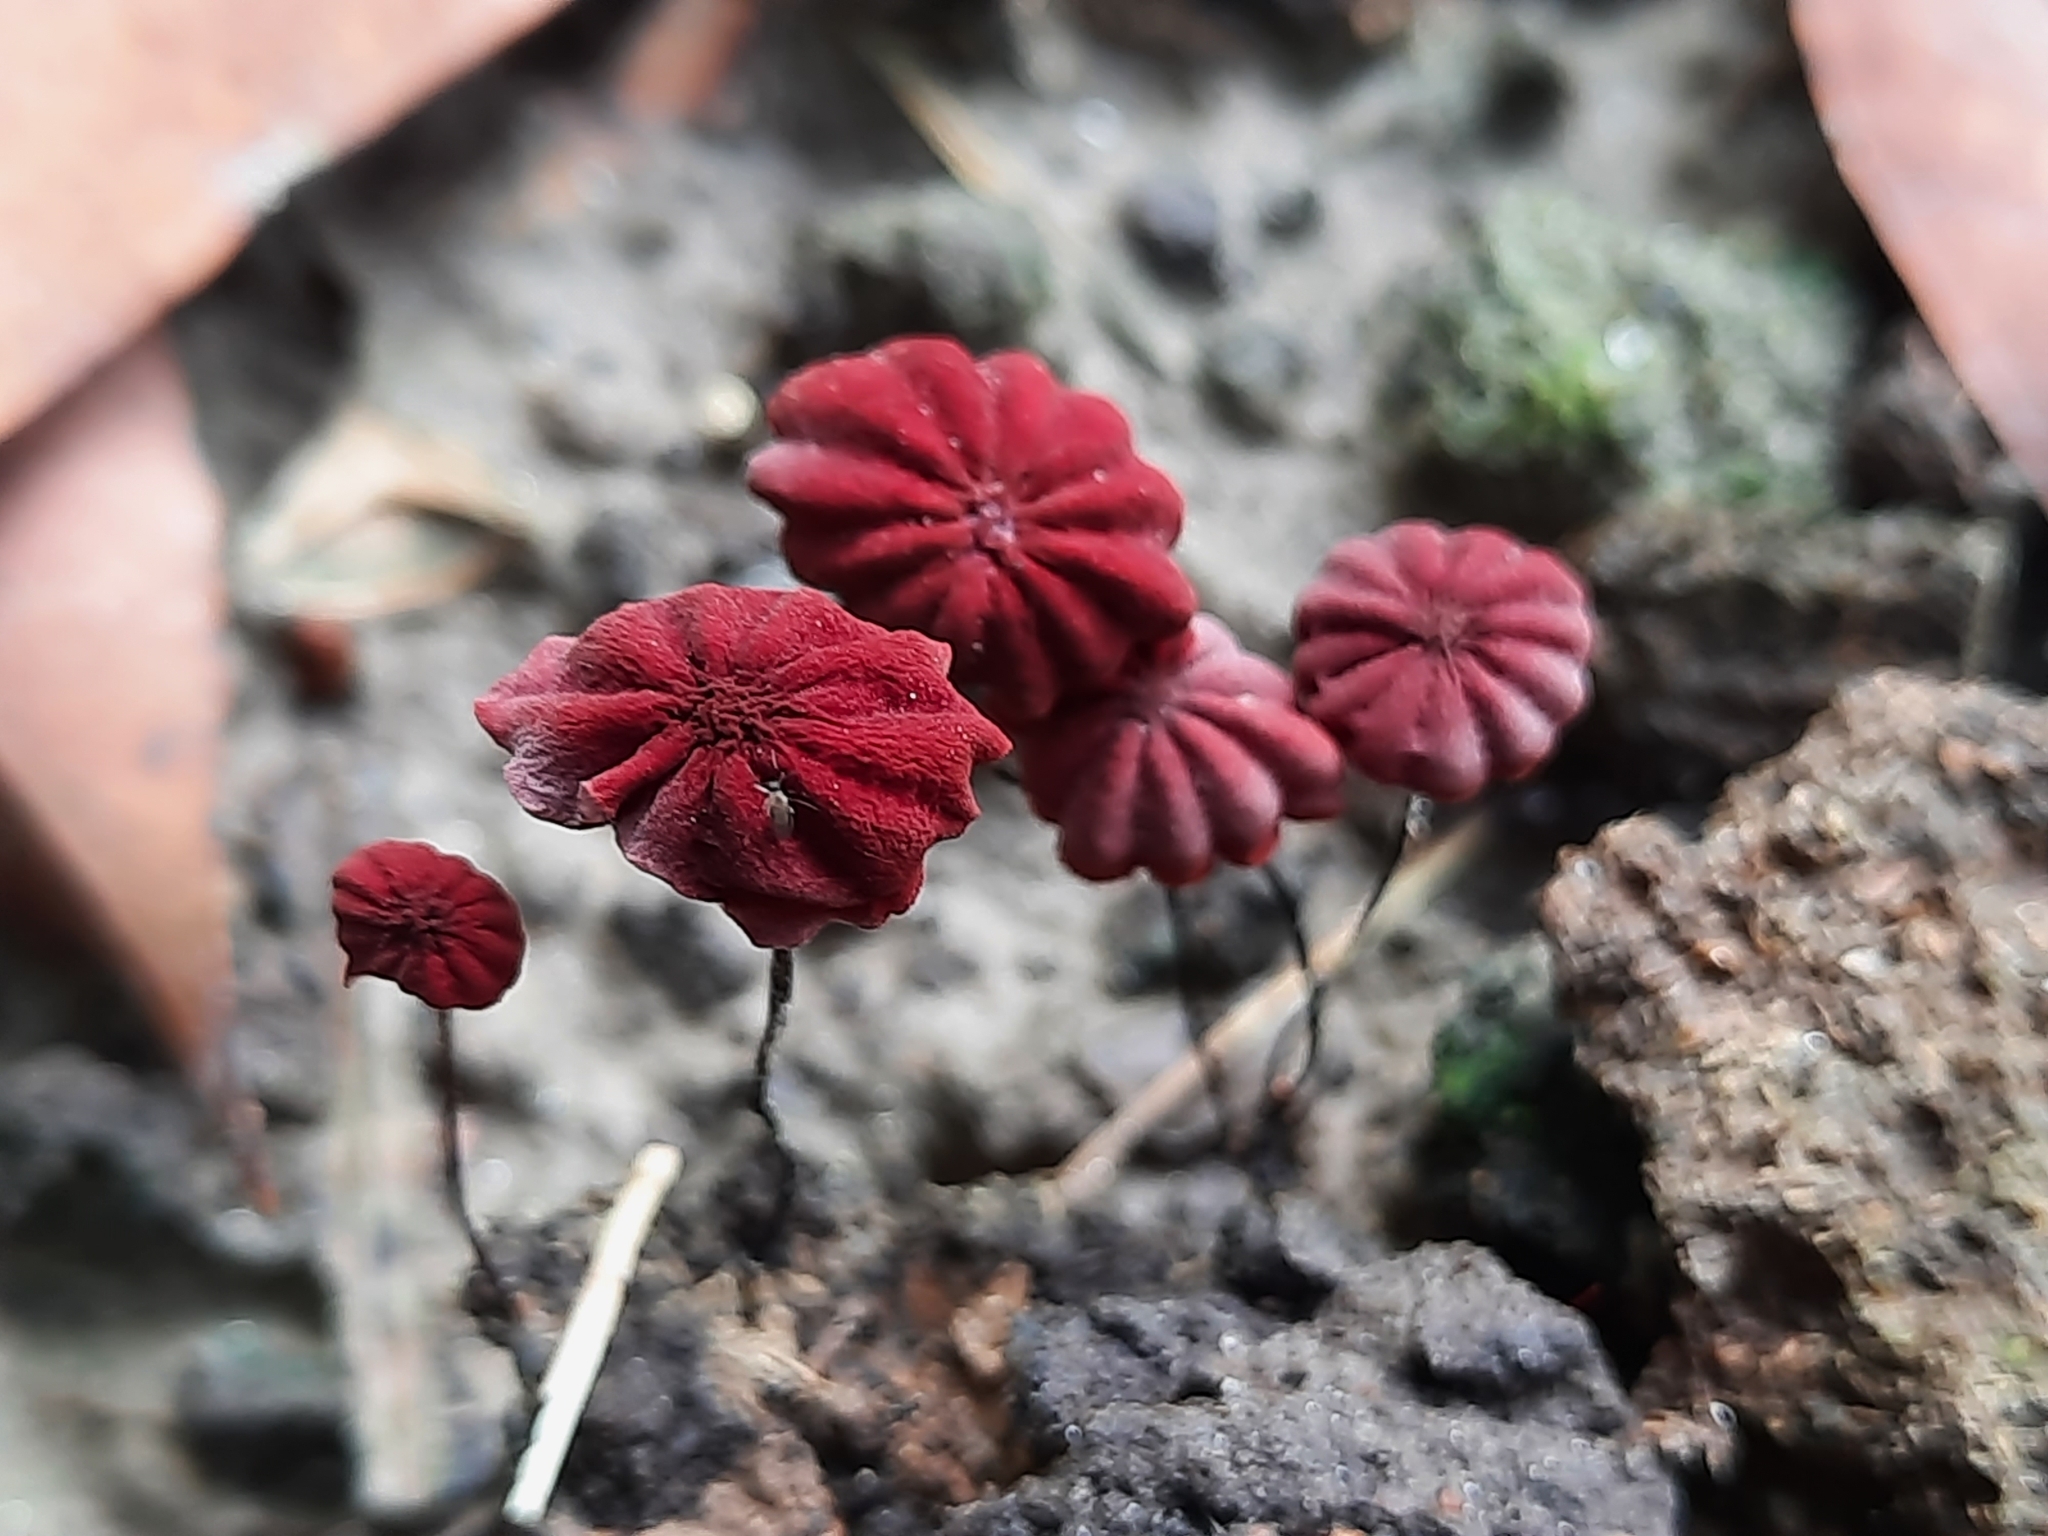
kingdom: Fungi
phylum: Basidiomycota
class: Agaricomycetes
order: Agaricales
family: Marasmiaceae
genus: Marasmius
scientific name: Marasmius haematocephalus
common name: Purple pinwheel
